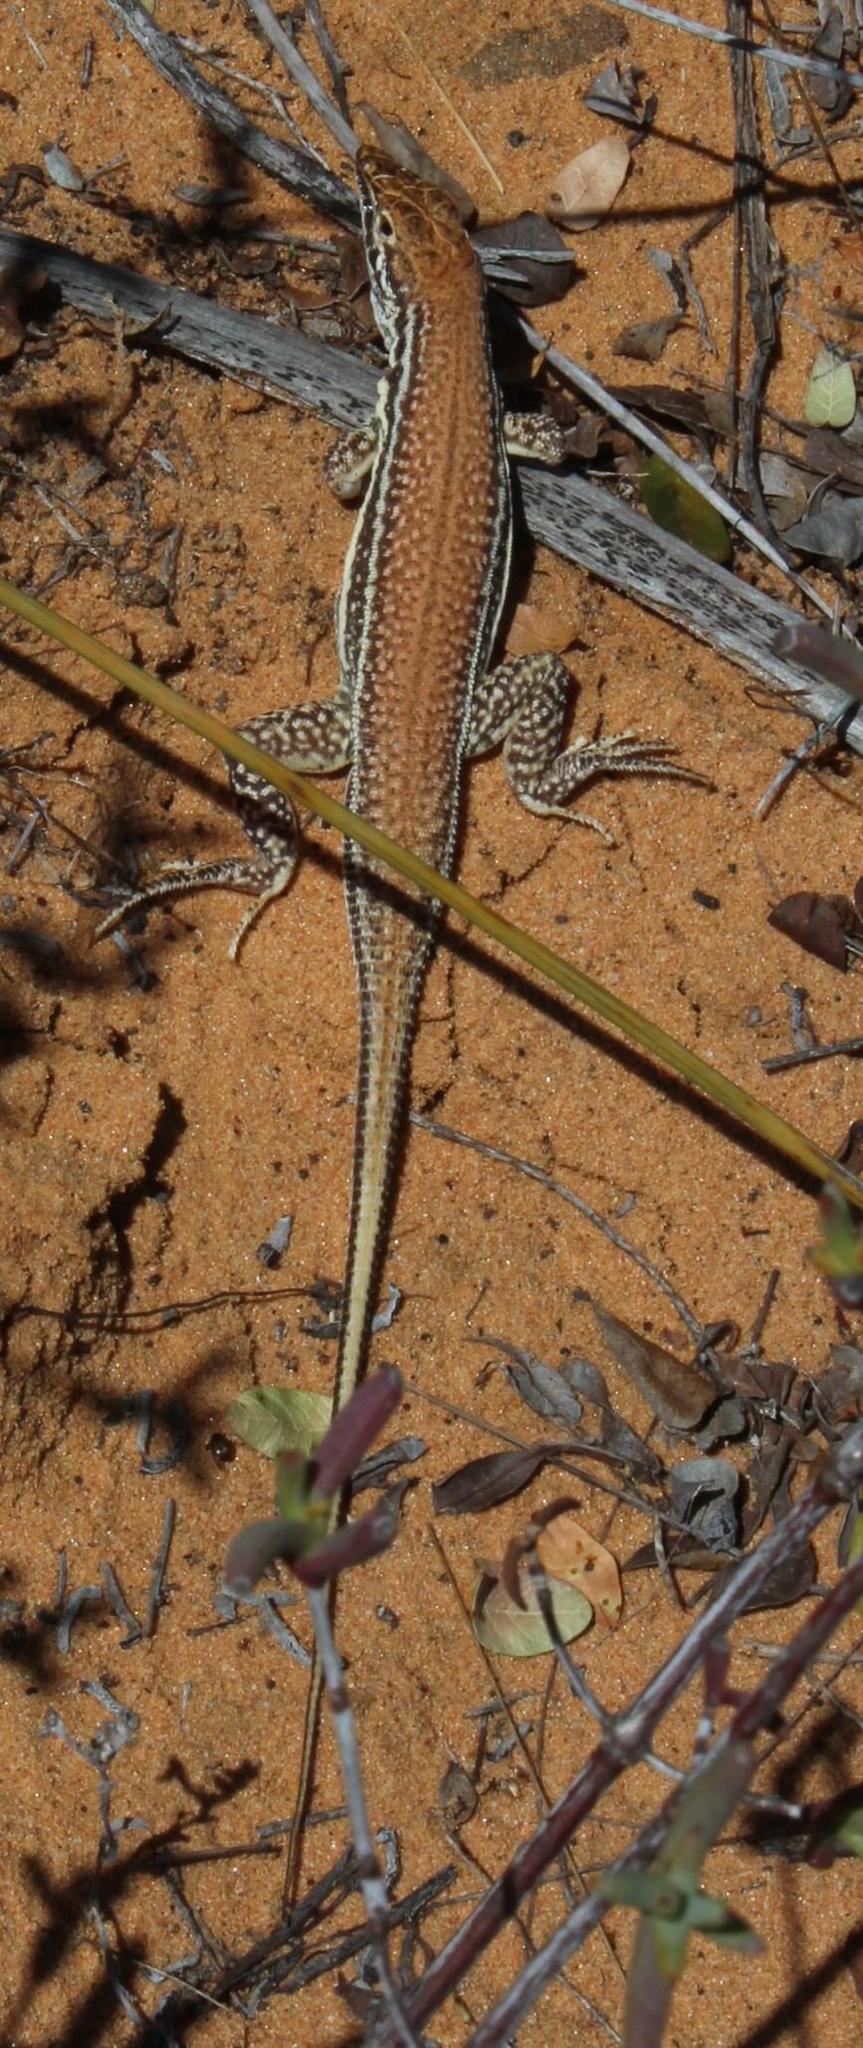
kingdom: Animalia
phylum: Chordata
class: Squamata
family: Lacertidae
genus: Meroles
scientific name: Meroles ctenodactylus
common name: Giant desert lizard
